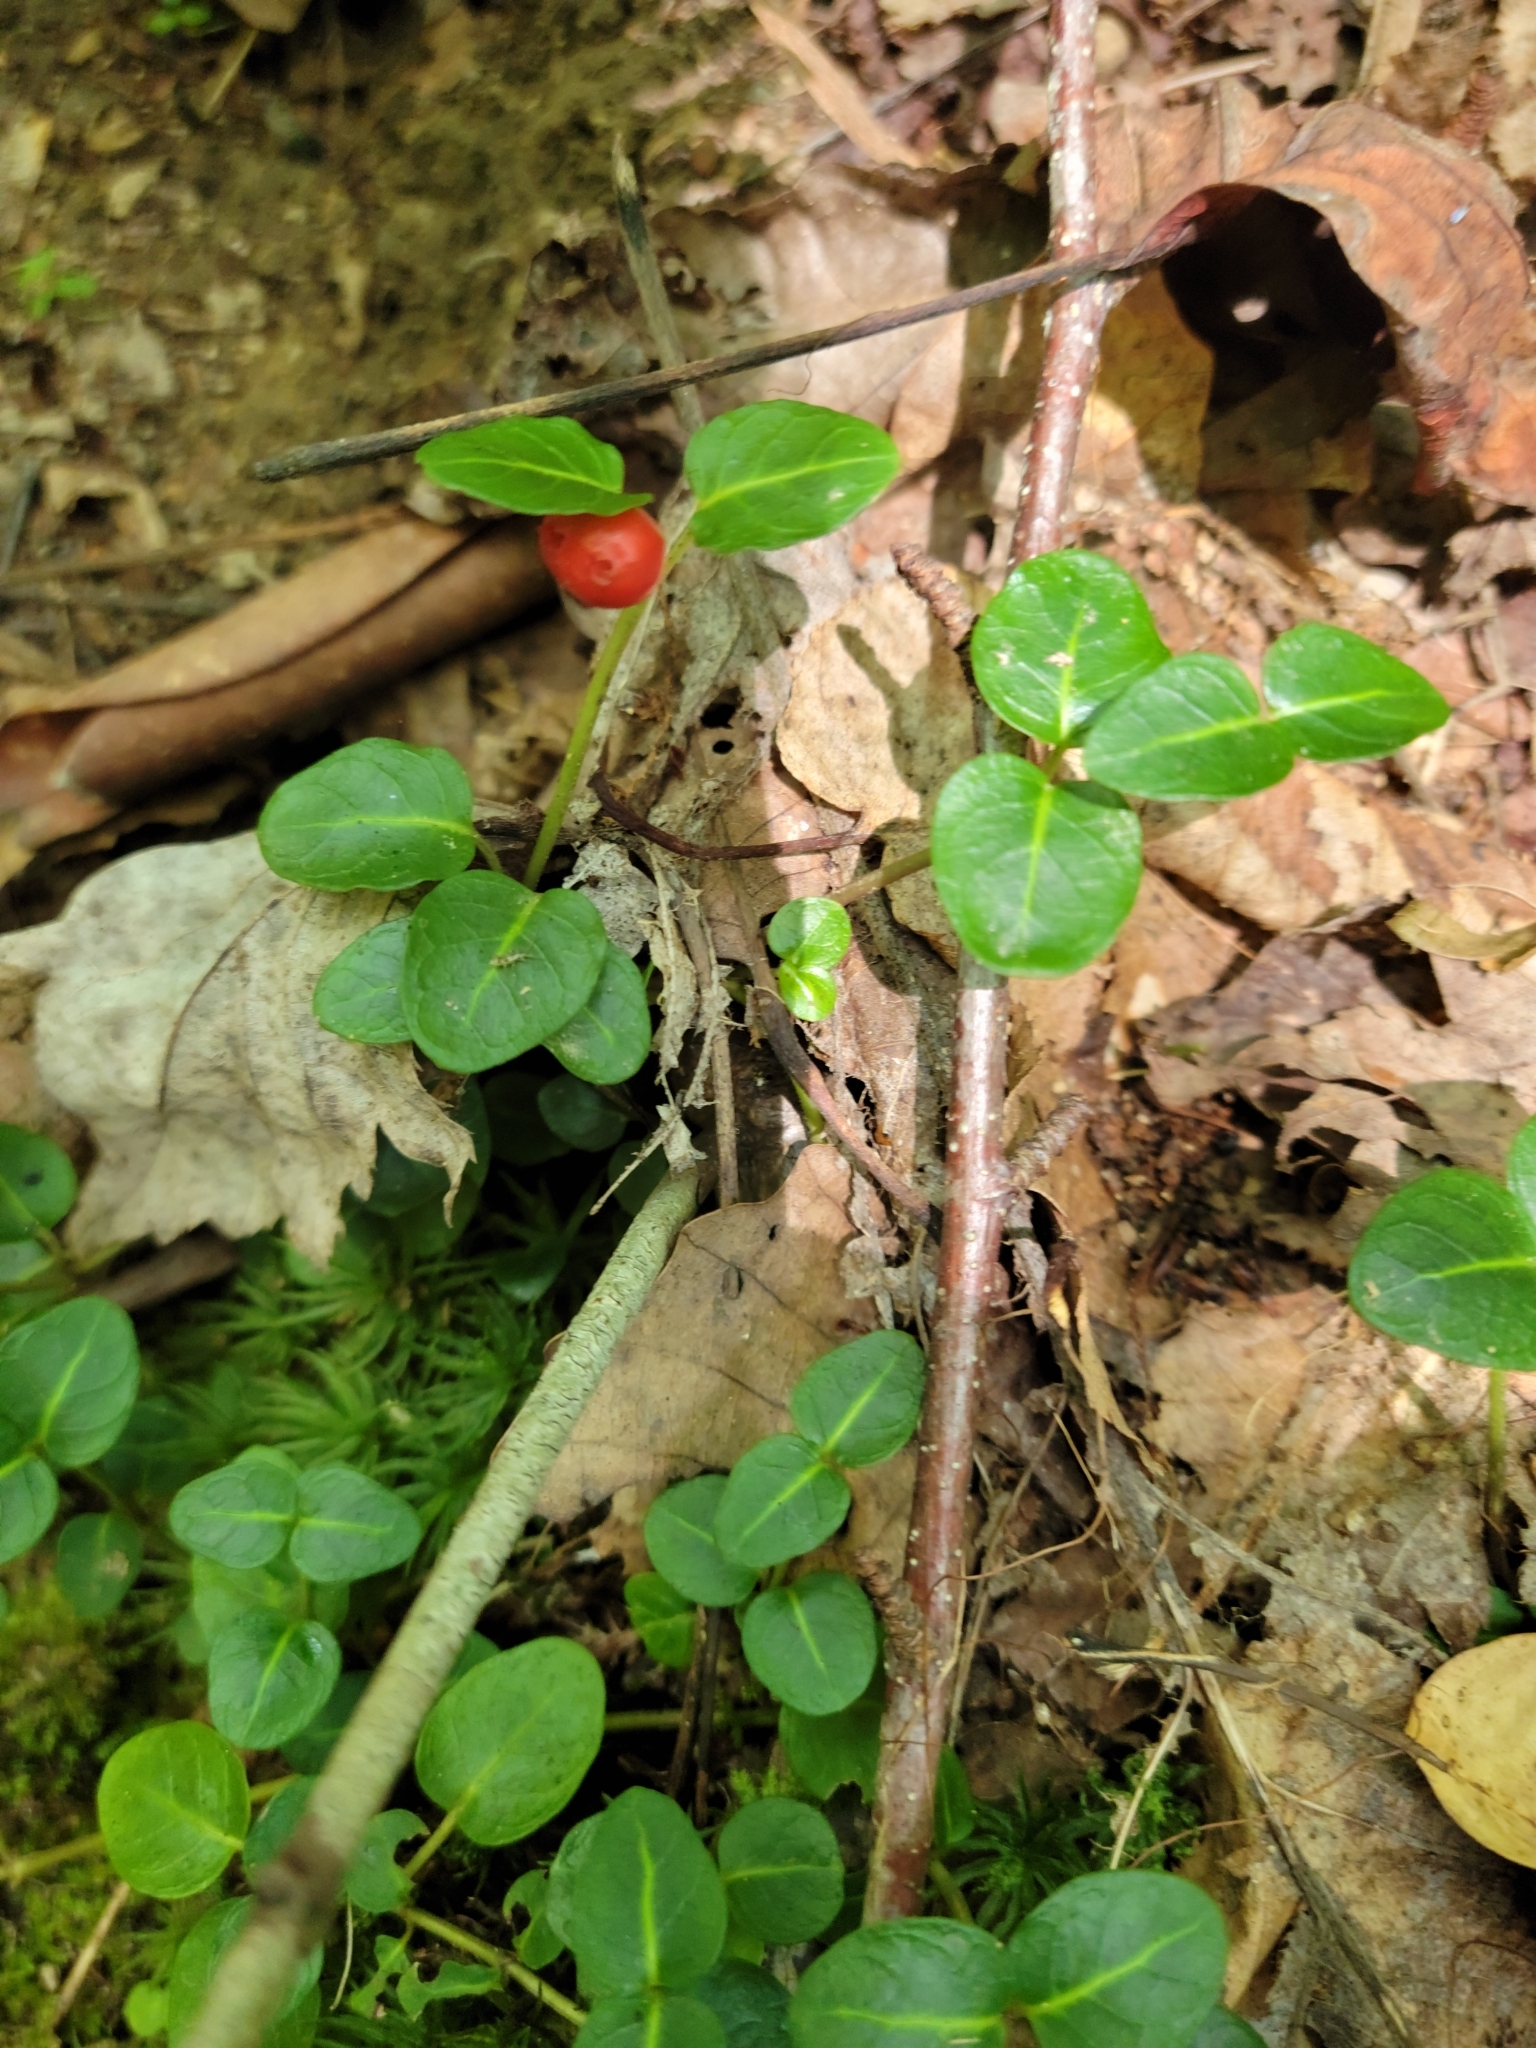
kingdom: Plantae
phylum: Tracheophyta
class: Magnoliopsida
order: Gentianales
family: Rubiaceae
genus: Mitchella
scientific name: Mitchella repens
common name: Partridge-berry
